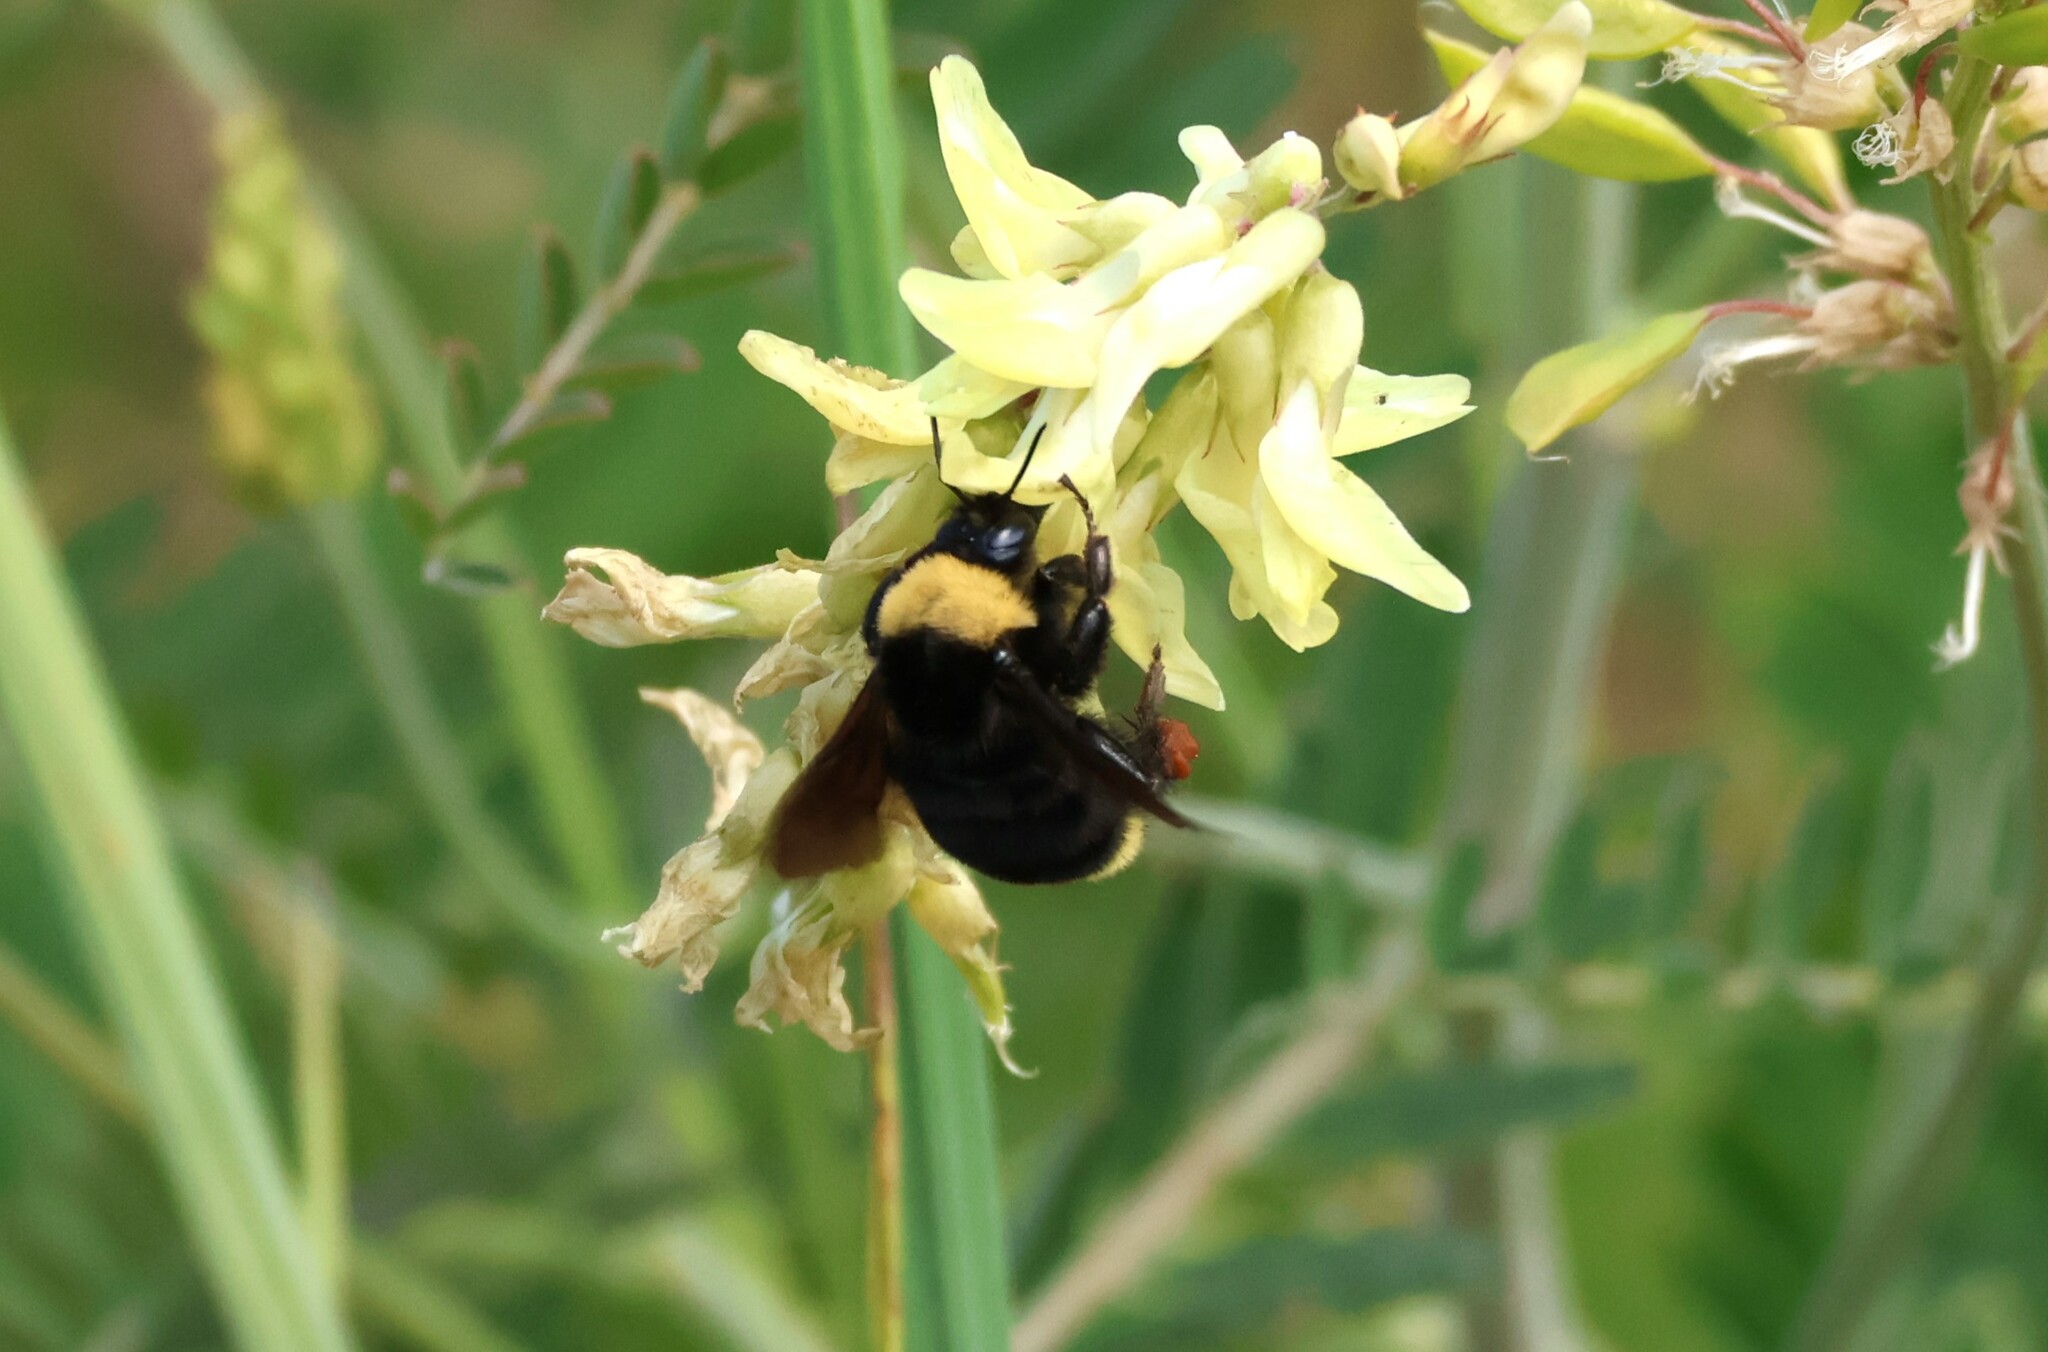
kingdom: Animalia
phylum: Arthropoda
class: Insecta
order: Hymenoptera
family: Apidae
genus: Bombus
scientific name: Bombus californicus
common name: California bumble bee
